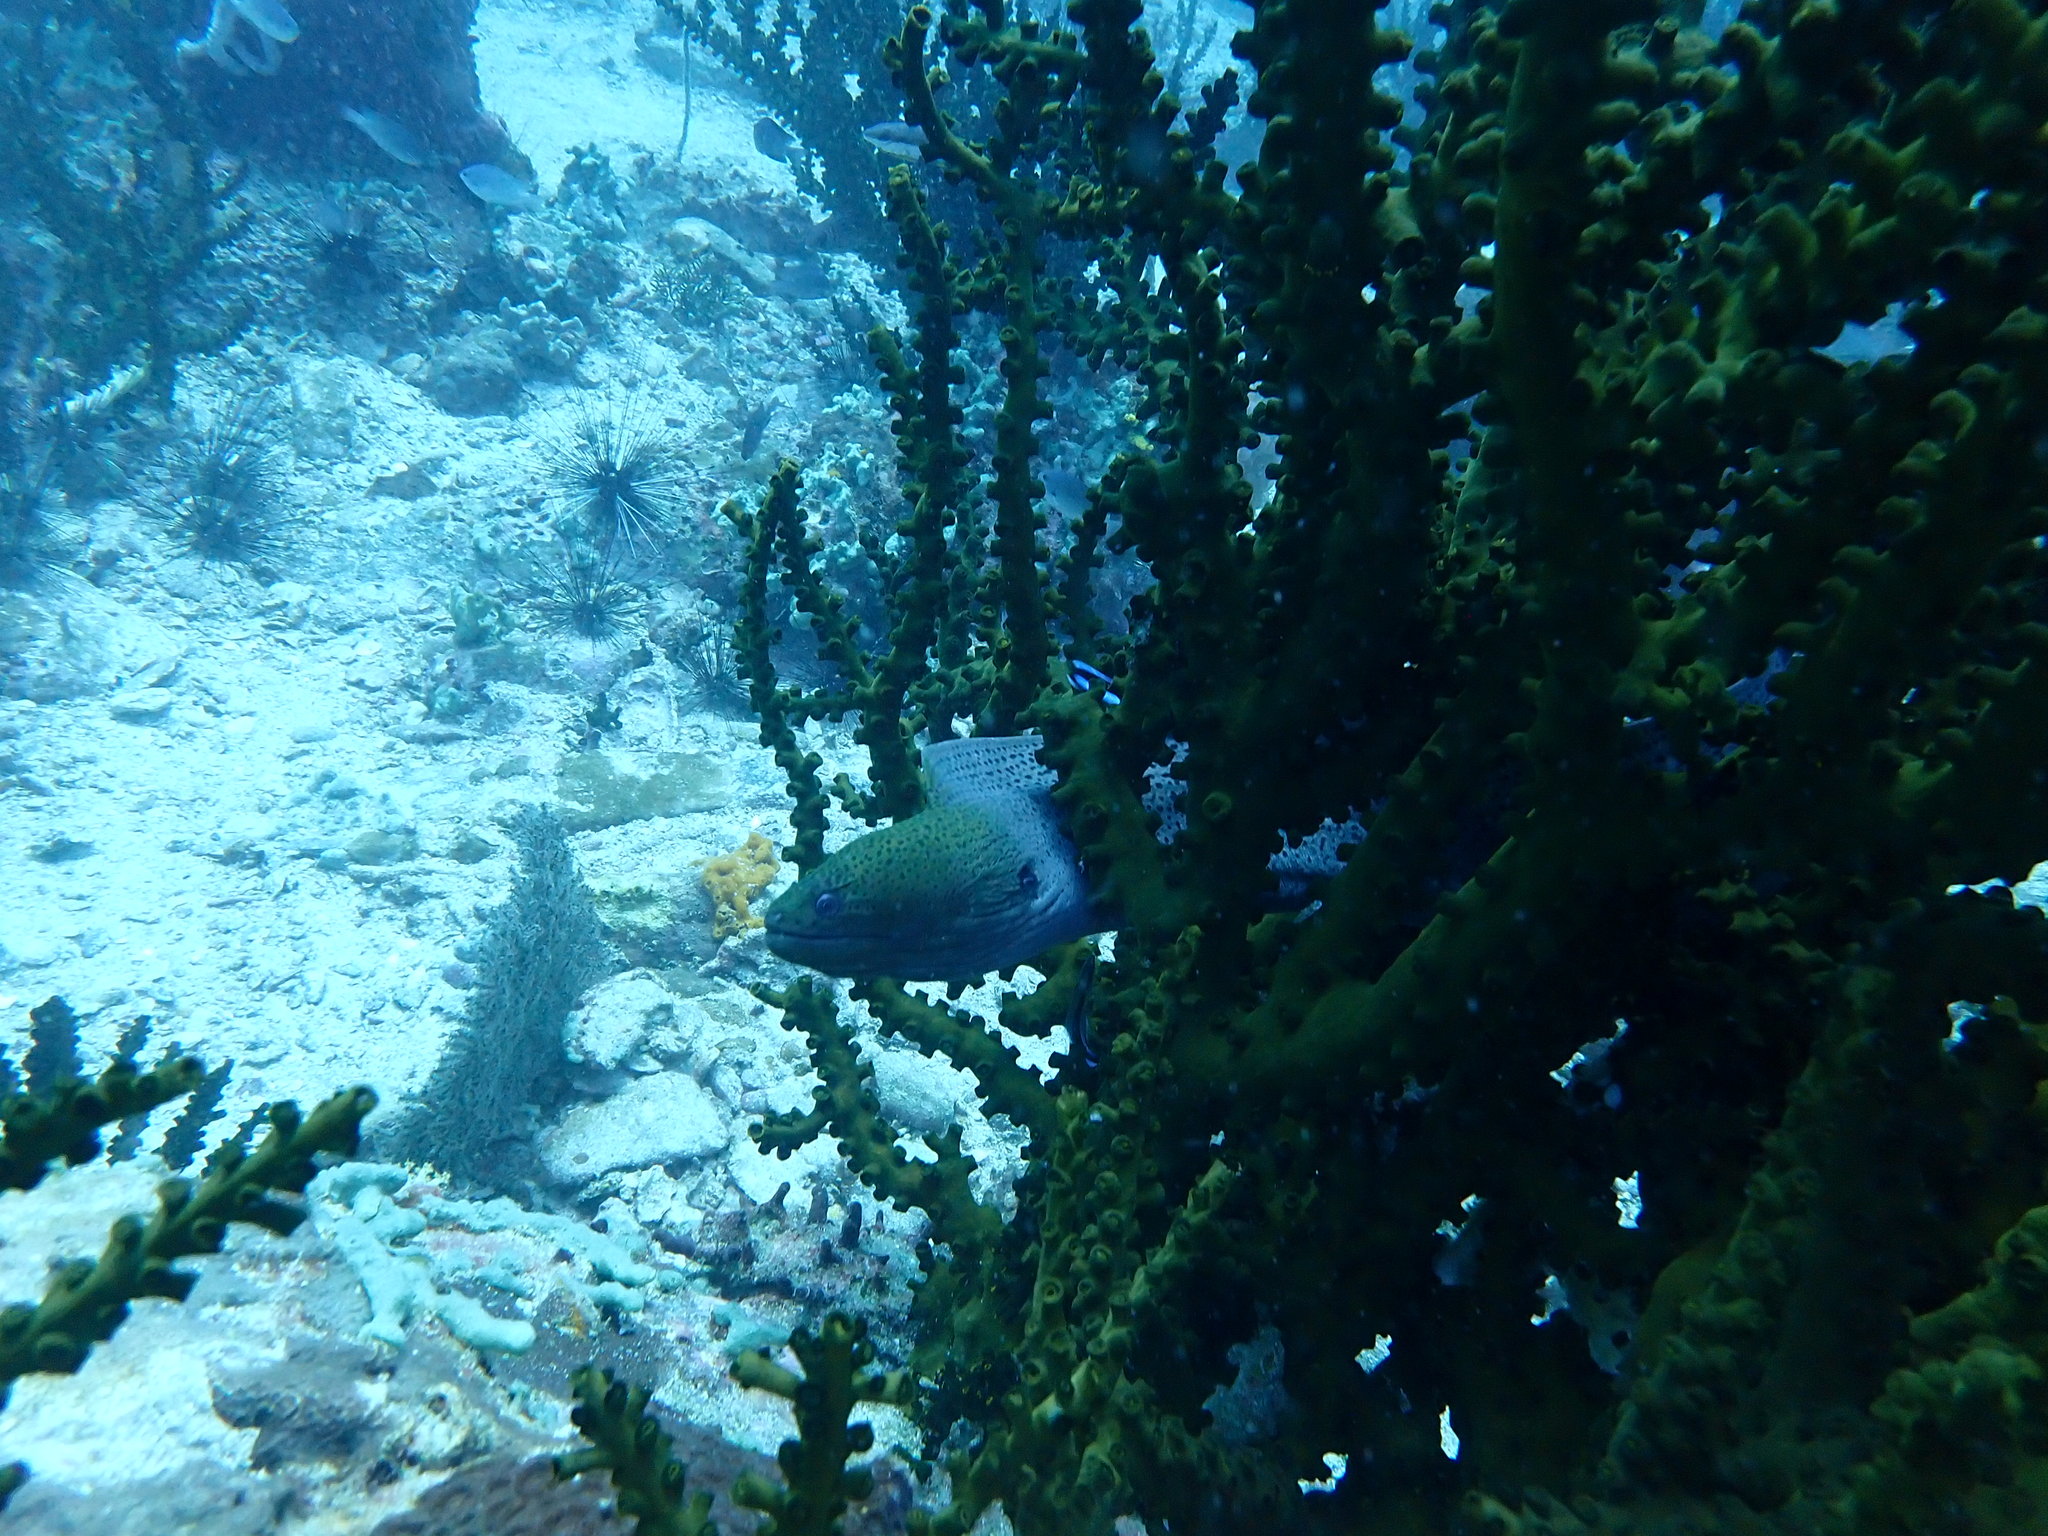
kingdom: Animalia
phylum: Chordata
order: Anguilliformes
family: Muraenidae
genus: Gymnothorax
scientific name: Gymnothorax javanicus
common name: Giant moray
